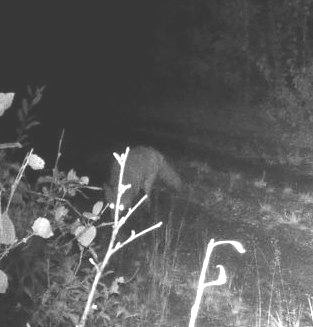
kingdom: Animalia
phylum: Chordata
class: Mammalia
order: Carnivora
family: Canidae
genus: Vulpes
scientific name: Vulpes vulpes
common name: Red fox
